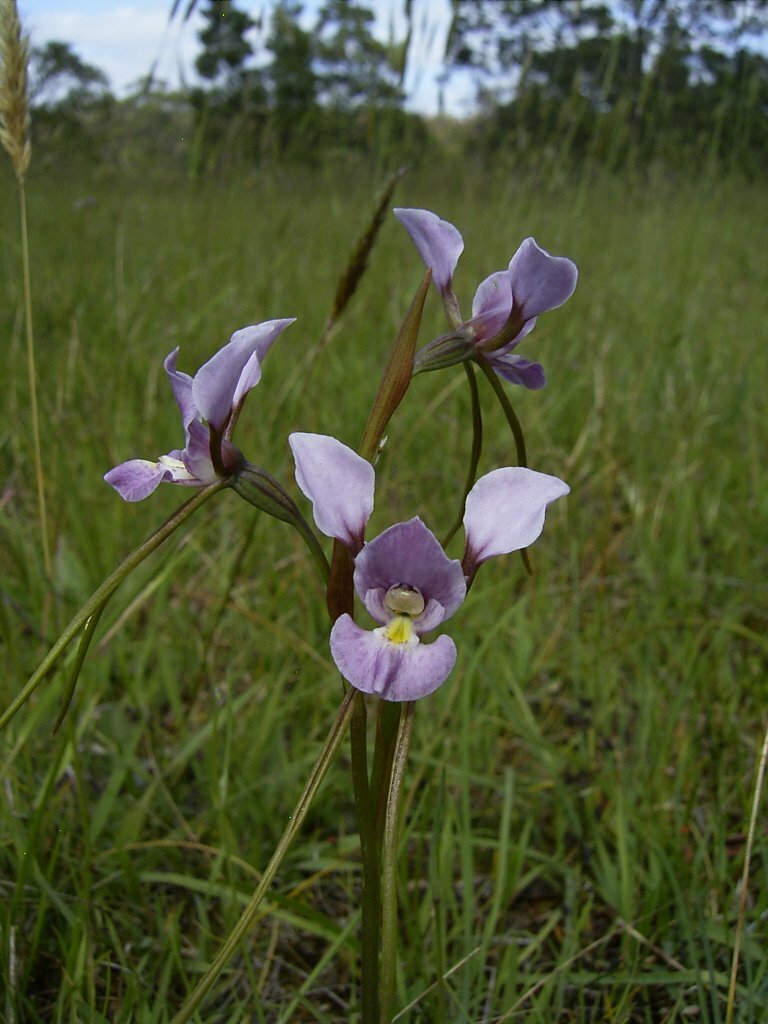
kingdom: Plantae
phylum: Tracheophyta
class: Liliopsida
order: Asparagales
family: Orchidaceae
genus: Diuris
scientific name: Diuris punctata
